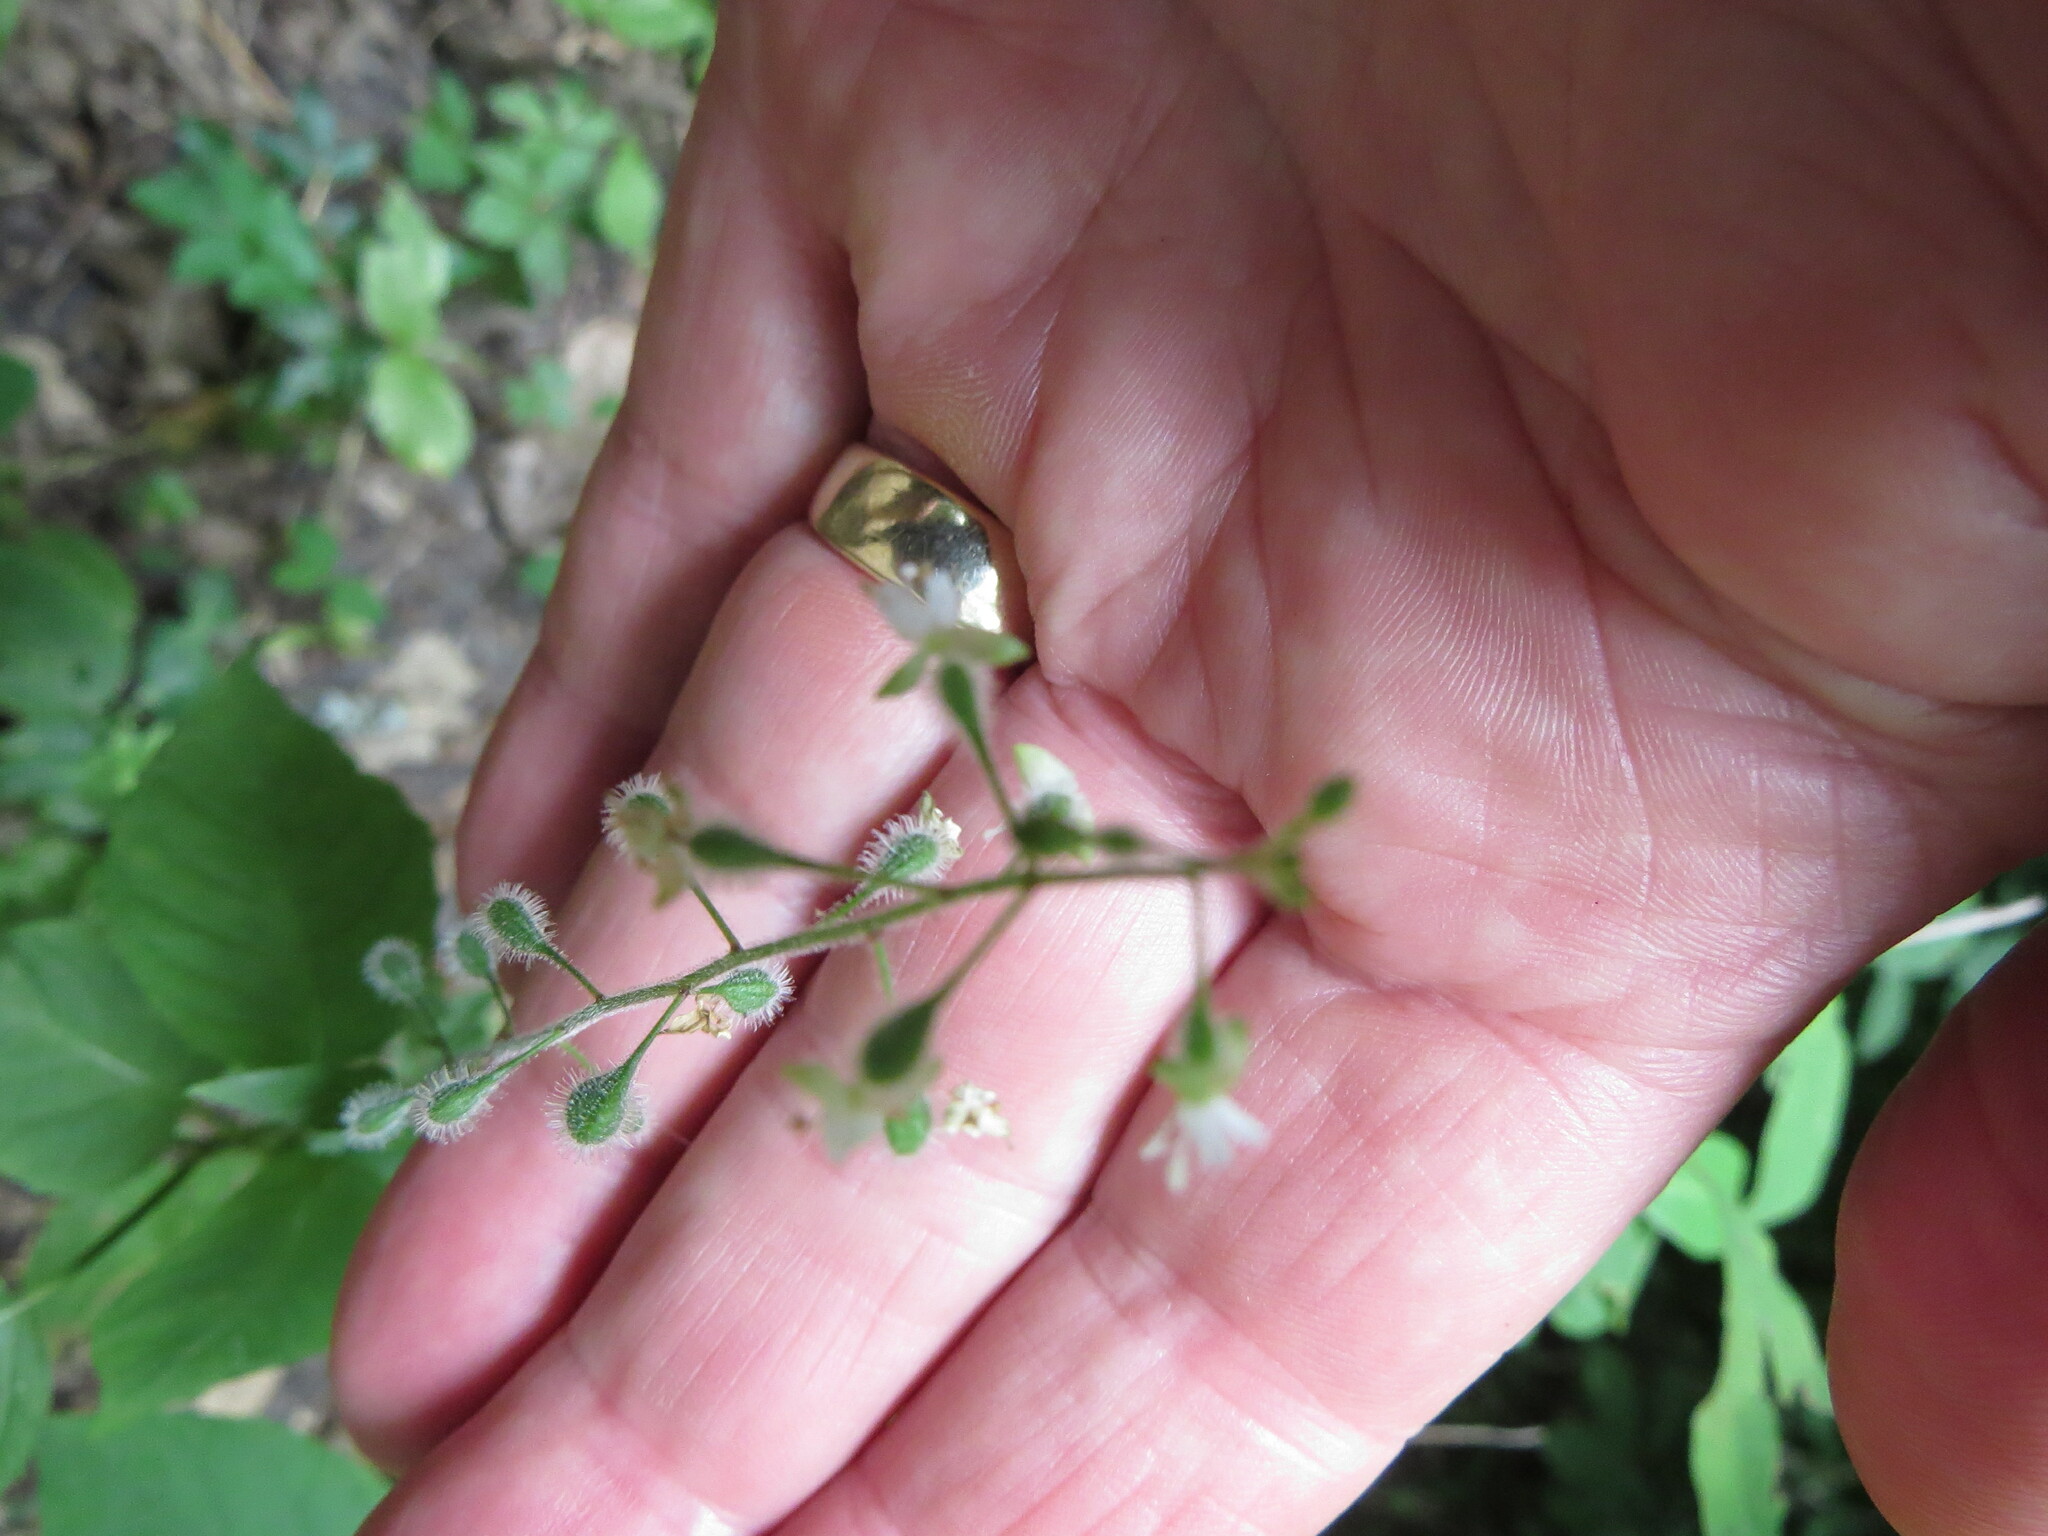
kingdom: Plantae
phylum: Tracheophyta
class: Magnoliopsida
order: Myrtales
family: Onagraceae
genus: Circaea
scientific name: Circaea canadensis
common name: Broad-leaved enchanter's nightshade
